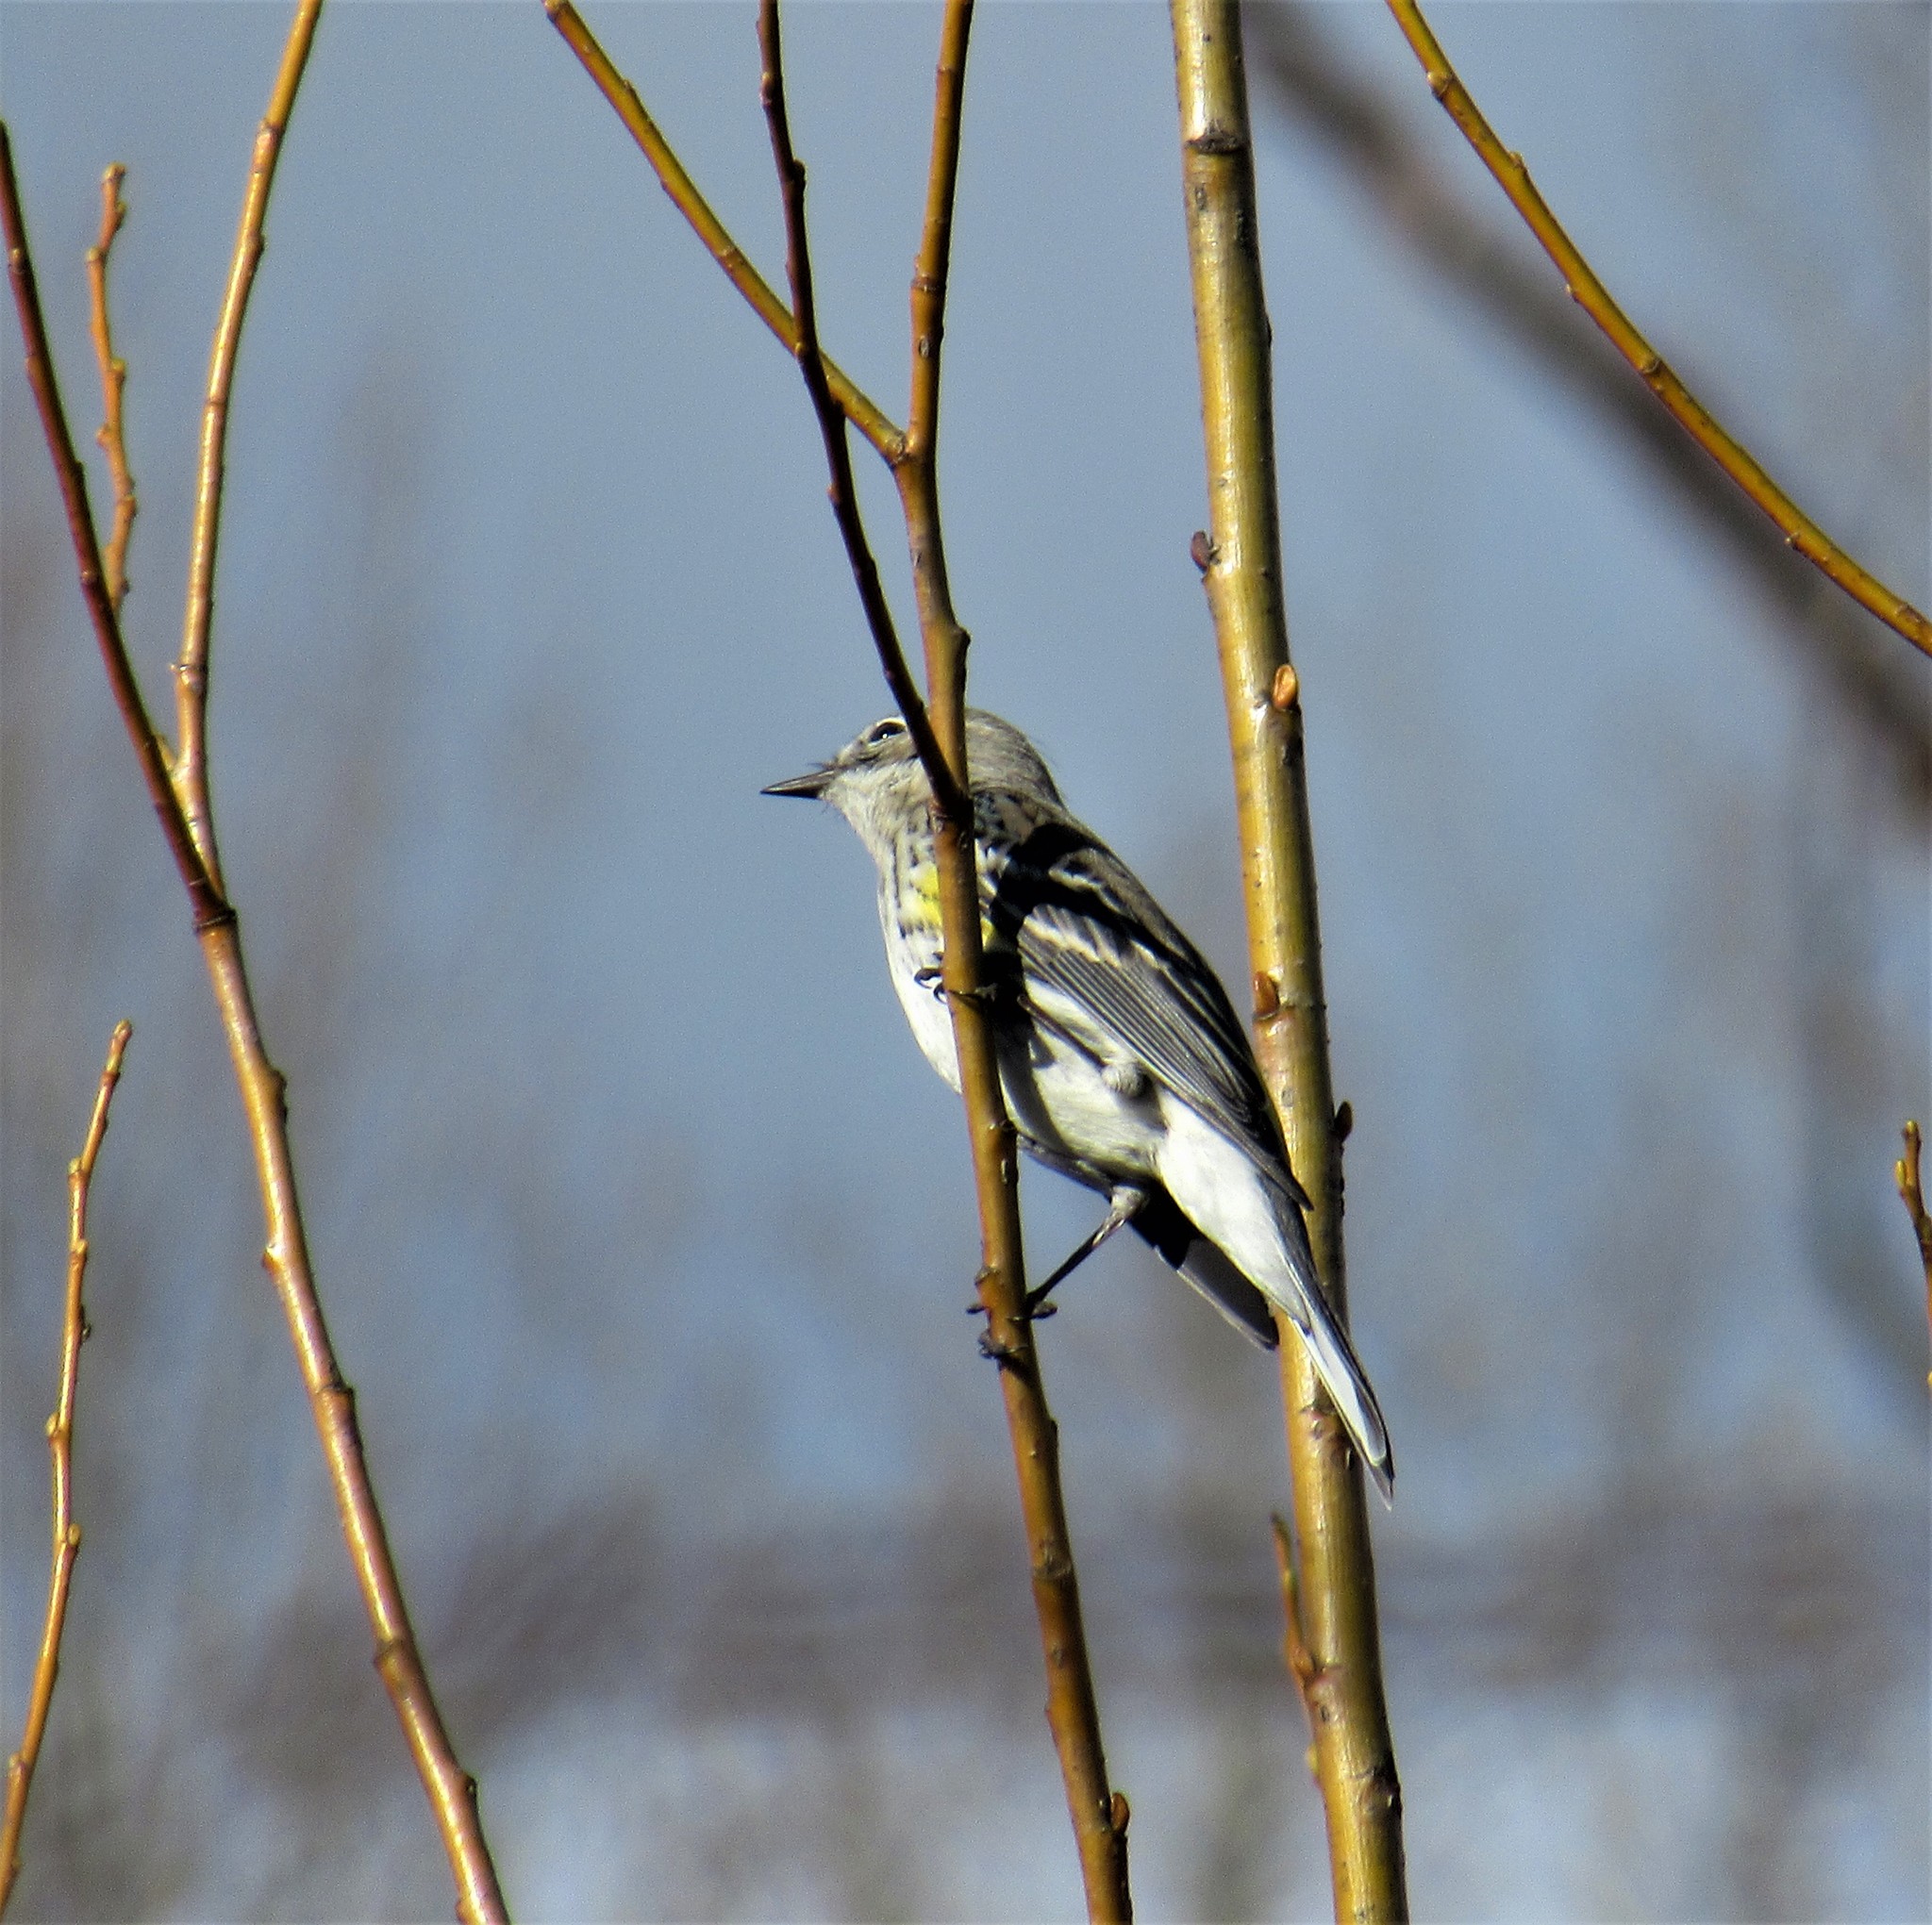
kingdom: Animalia
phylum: Chordata
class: Aves
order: Passeriformes
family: Parulidae
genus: Setophaga
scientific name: Setophaga coronata
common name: Myrtle warbler
